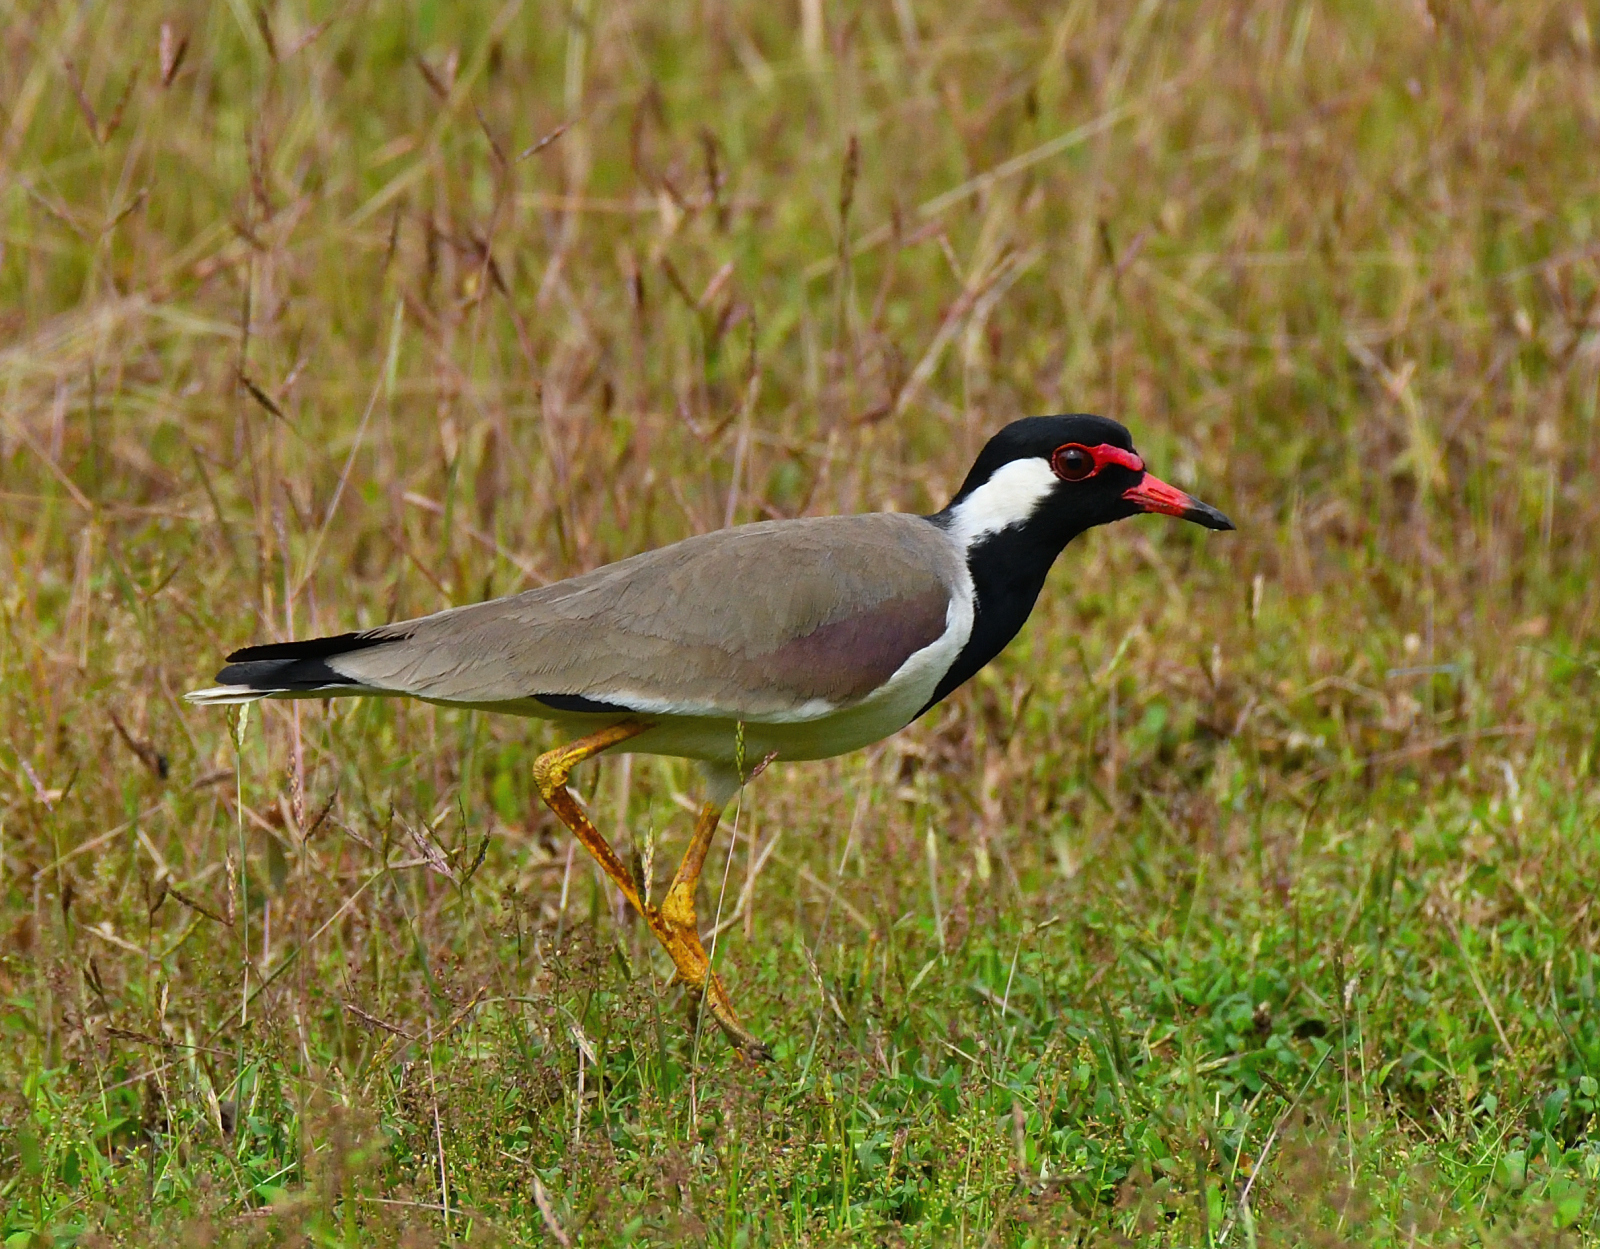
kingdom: Animalia
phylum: Chordata
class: Aves
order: Charadriiformes
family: Charadriidae
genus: Vanellus
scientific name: Vanellus indicus
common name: Red-wattled lapwing
